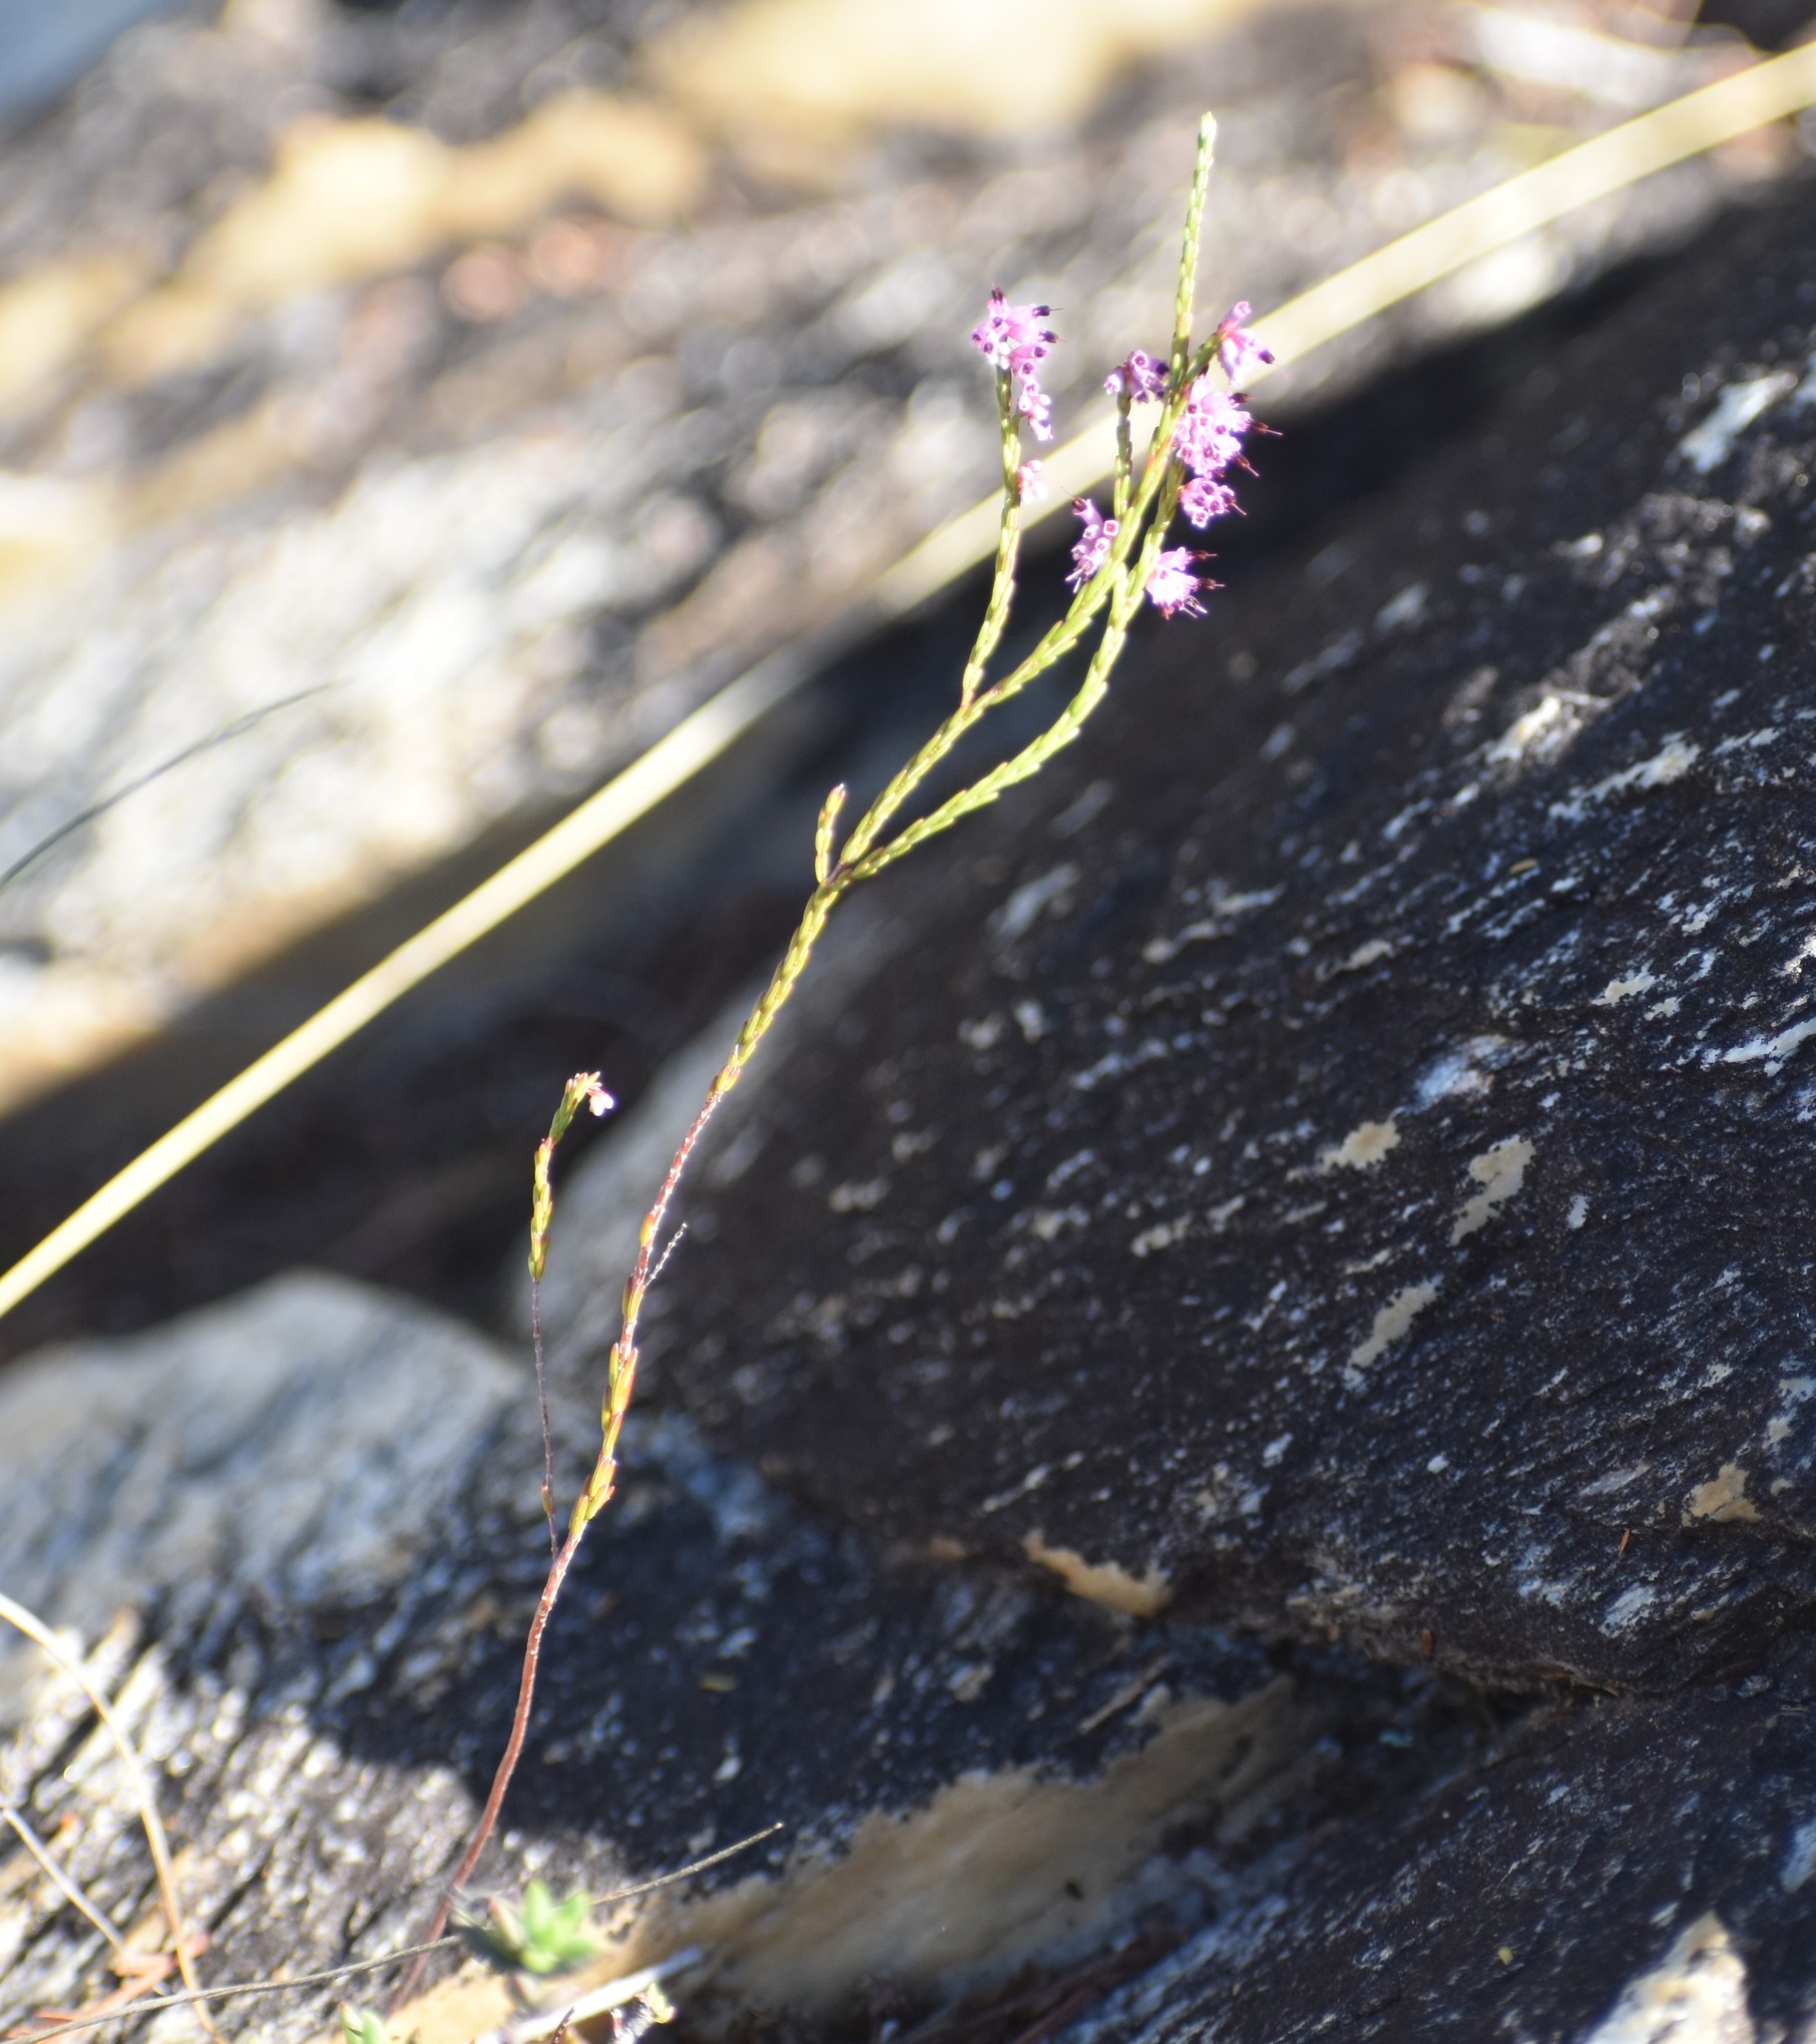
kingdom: Plantae
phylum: Tracheophyta
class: Magnoliopsida
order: Ericales
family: Ericaceae
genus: Erica
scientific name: Erica rosacea
